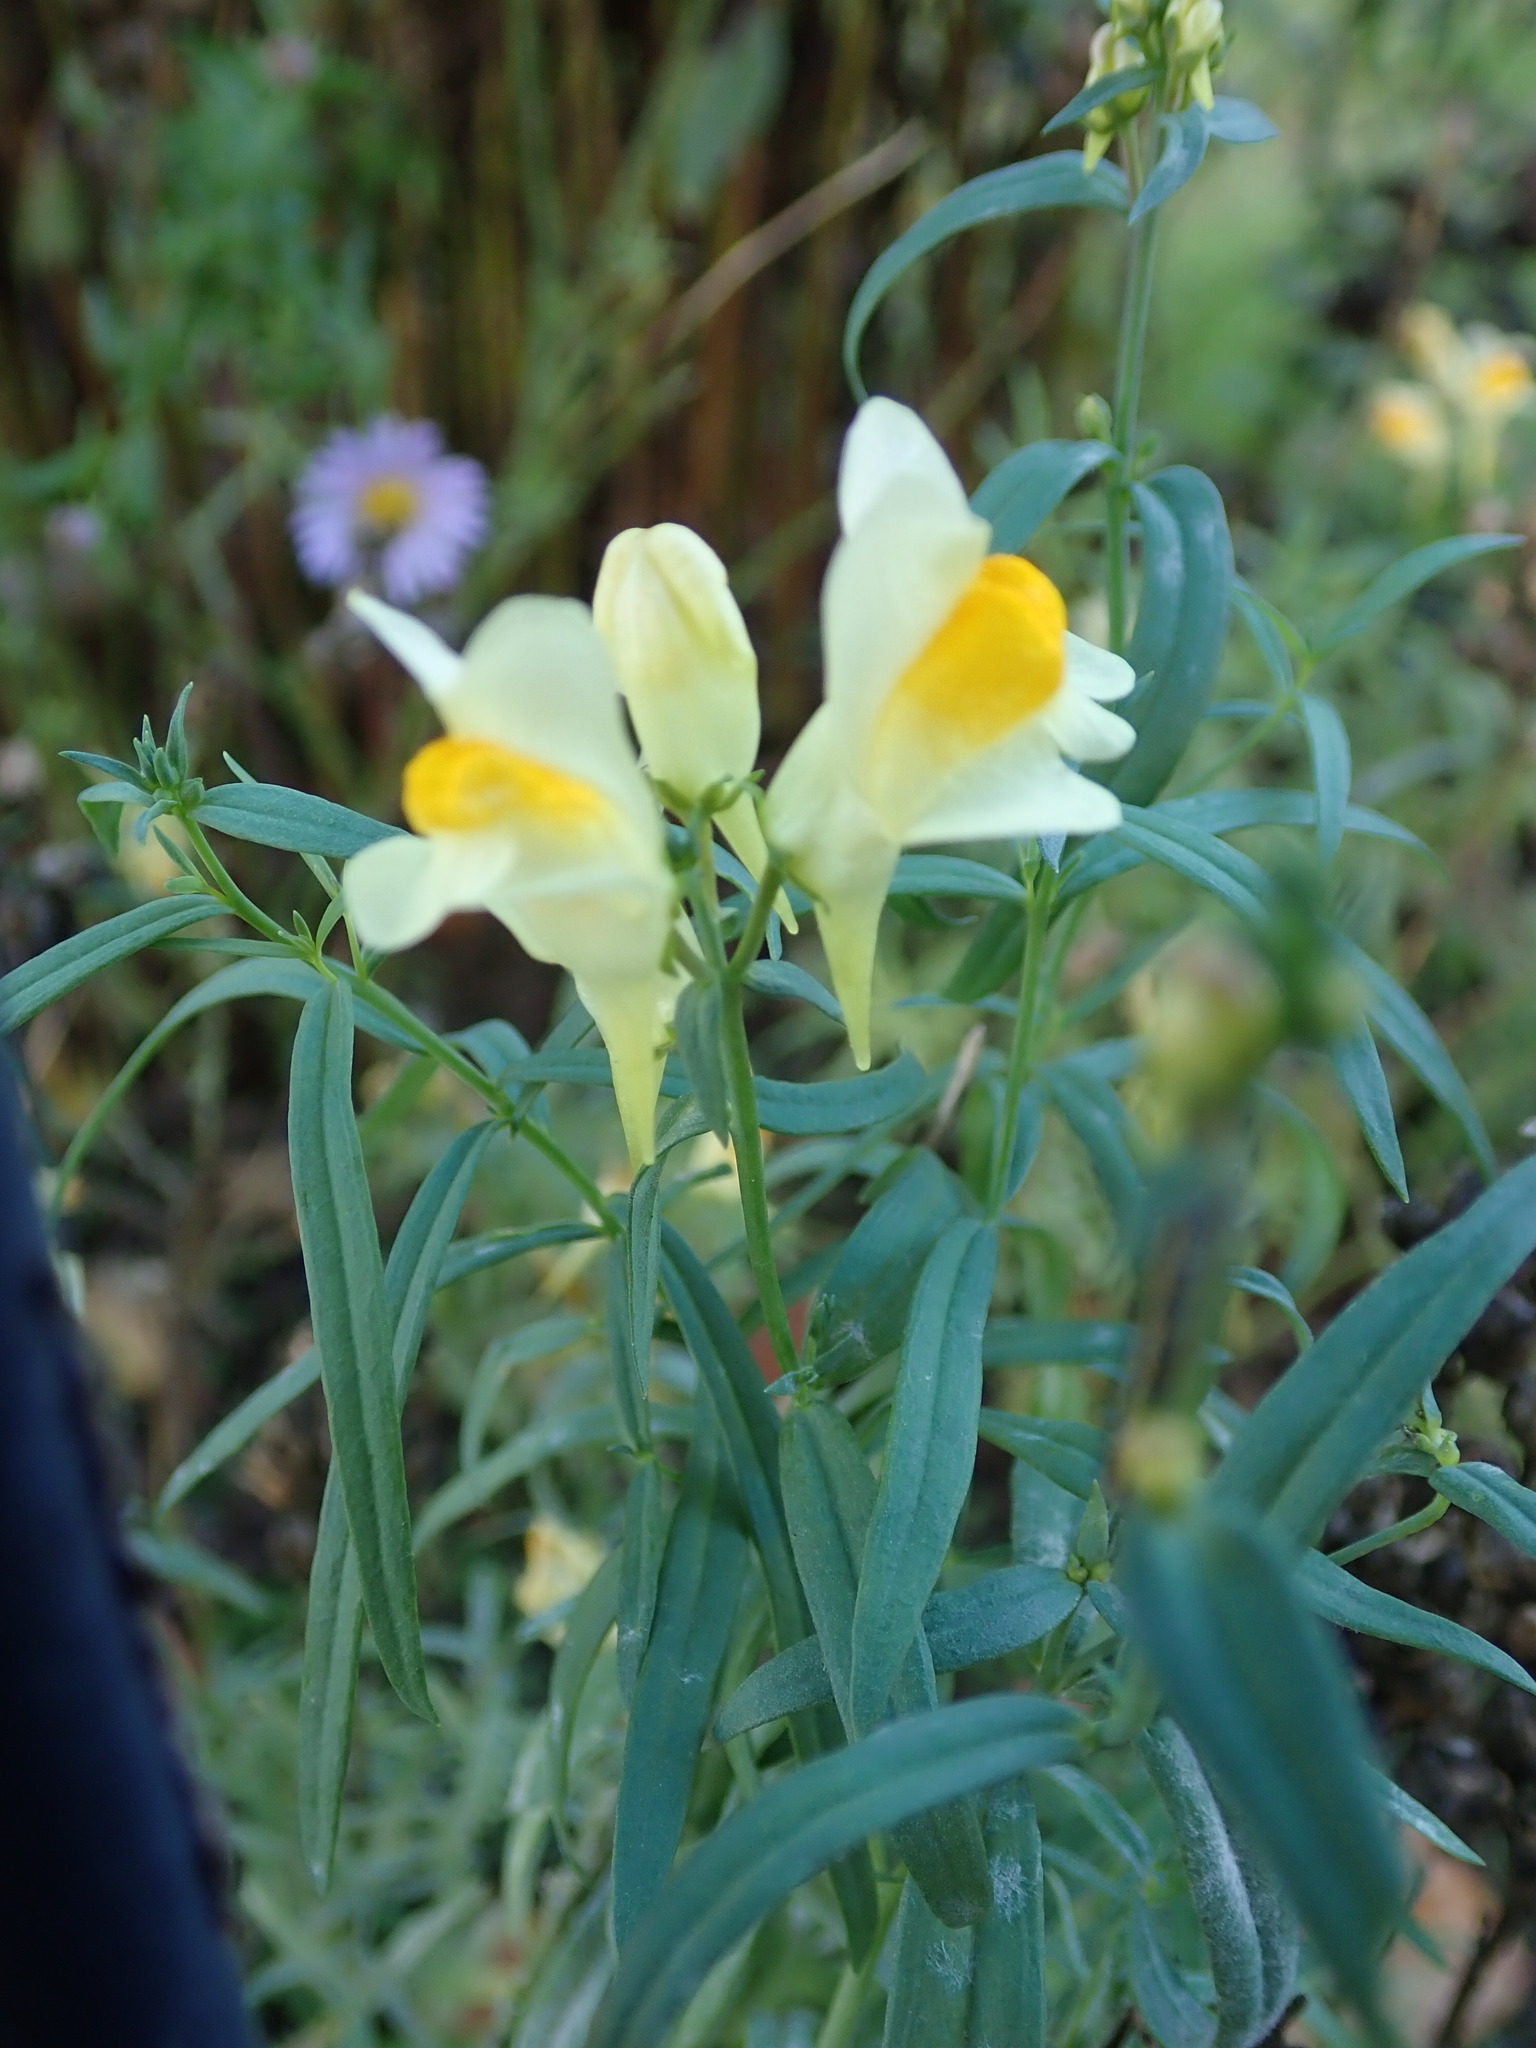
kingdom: Plantae
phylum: Tracheophyta
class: Magnoliopsida
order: Lamiales
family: Plantaginaceae
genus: Linaria
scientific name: Linaria vulgaris
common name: Butter and eggs
